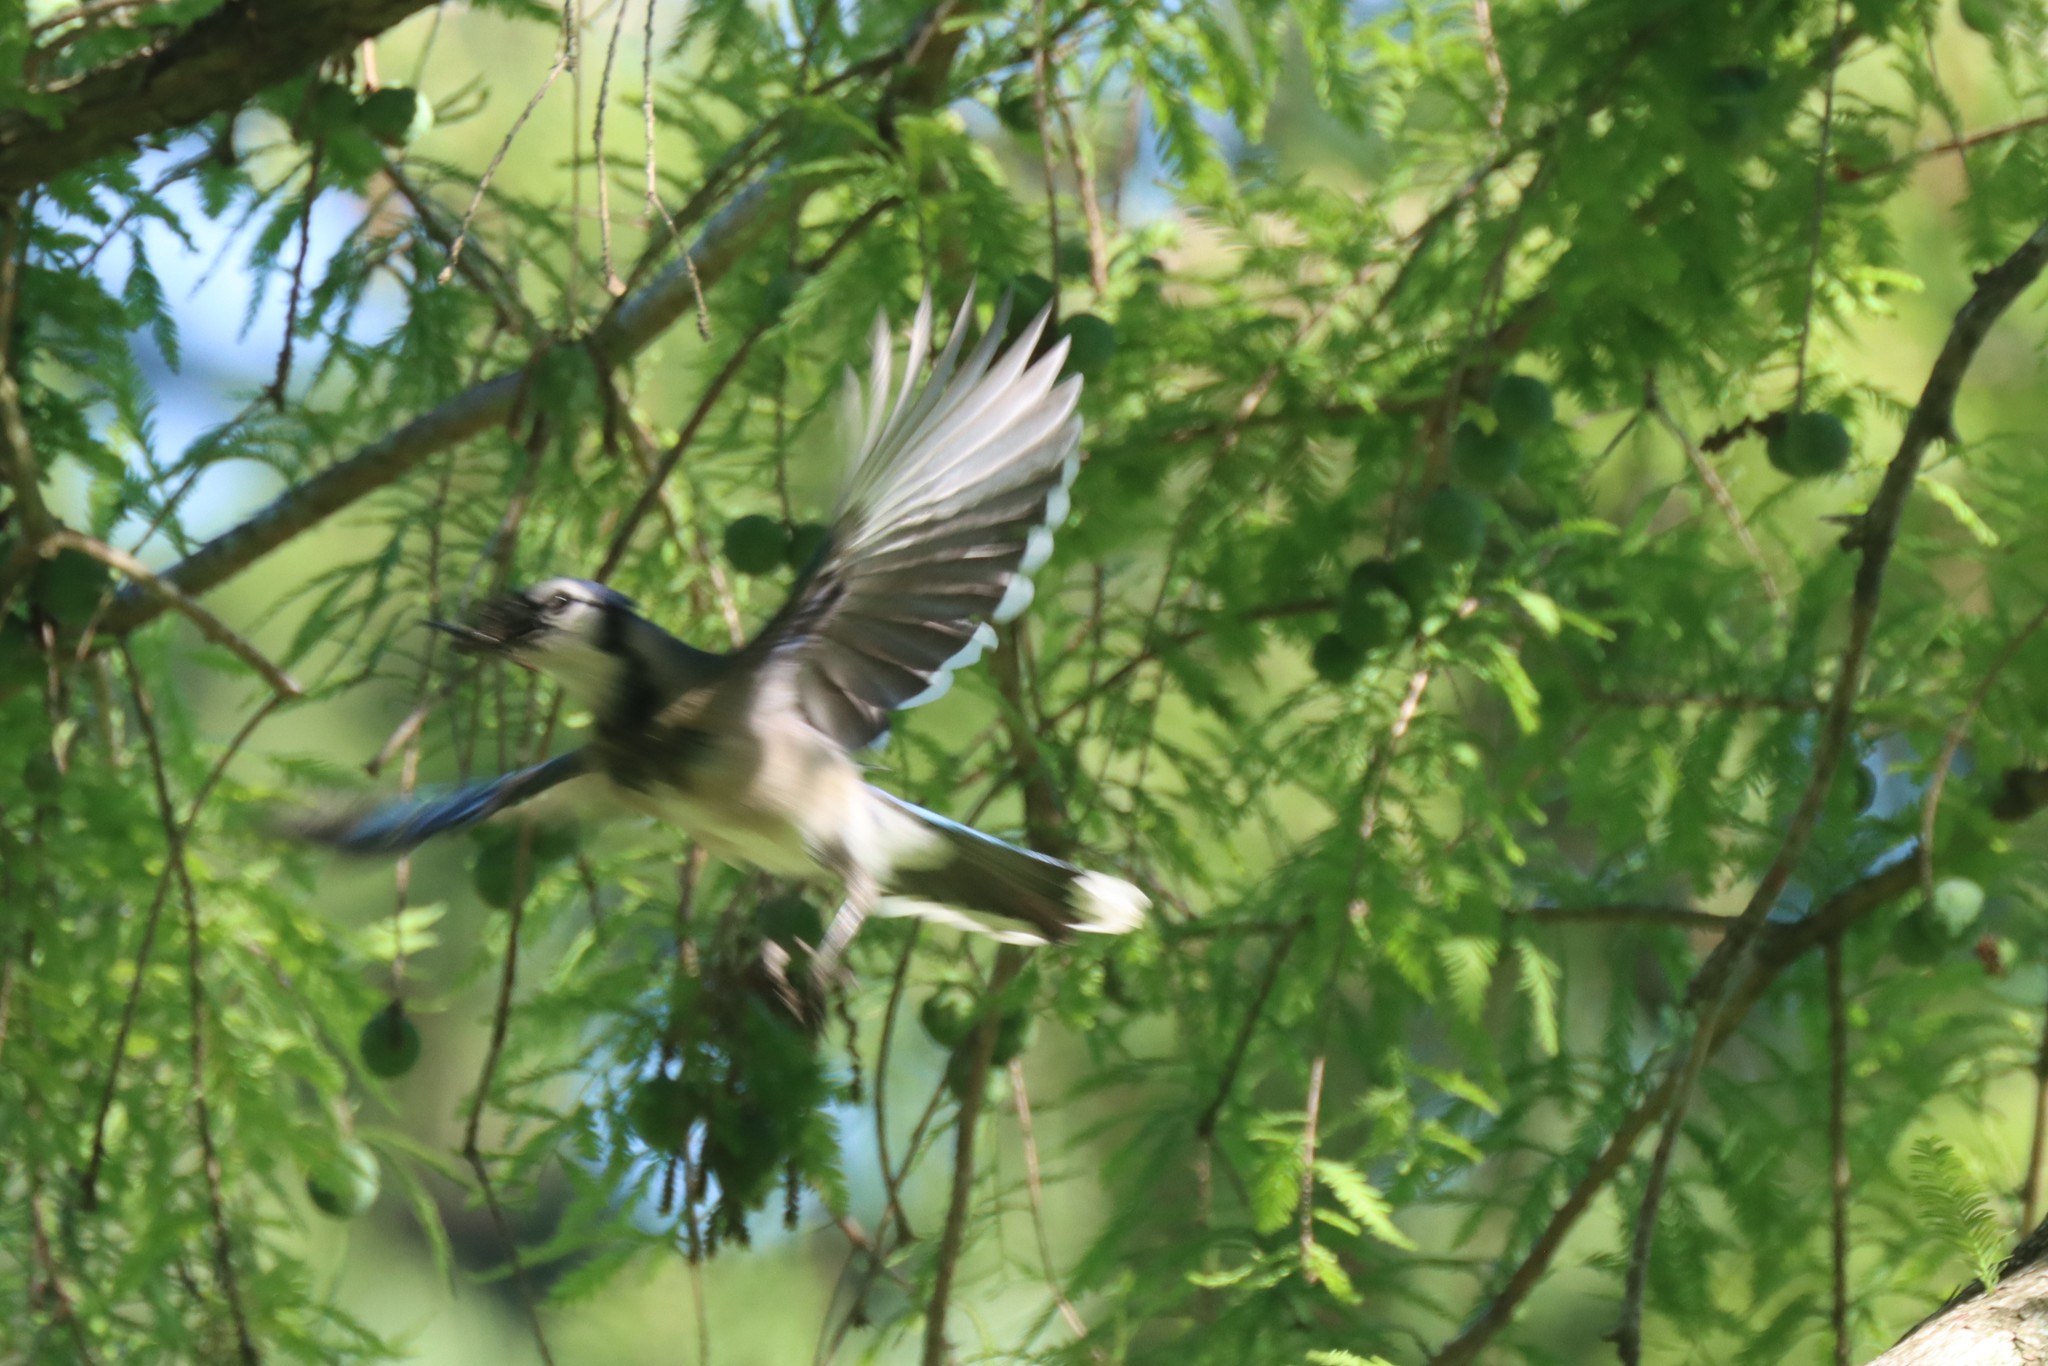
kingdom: Animalia
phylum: Chordata
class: Aves
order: Passeriformes
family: Corvidae
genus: Cyanocitta
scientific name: Cyanocitta cristata
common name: Blue jay
